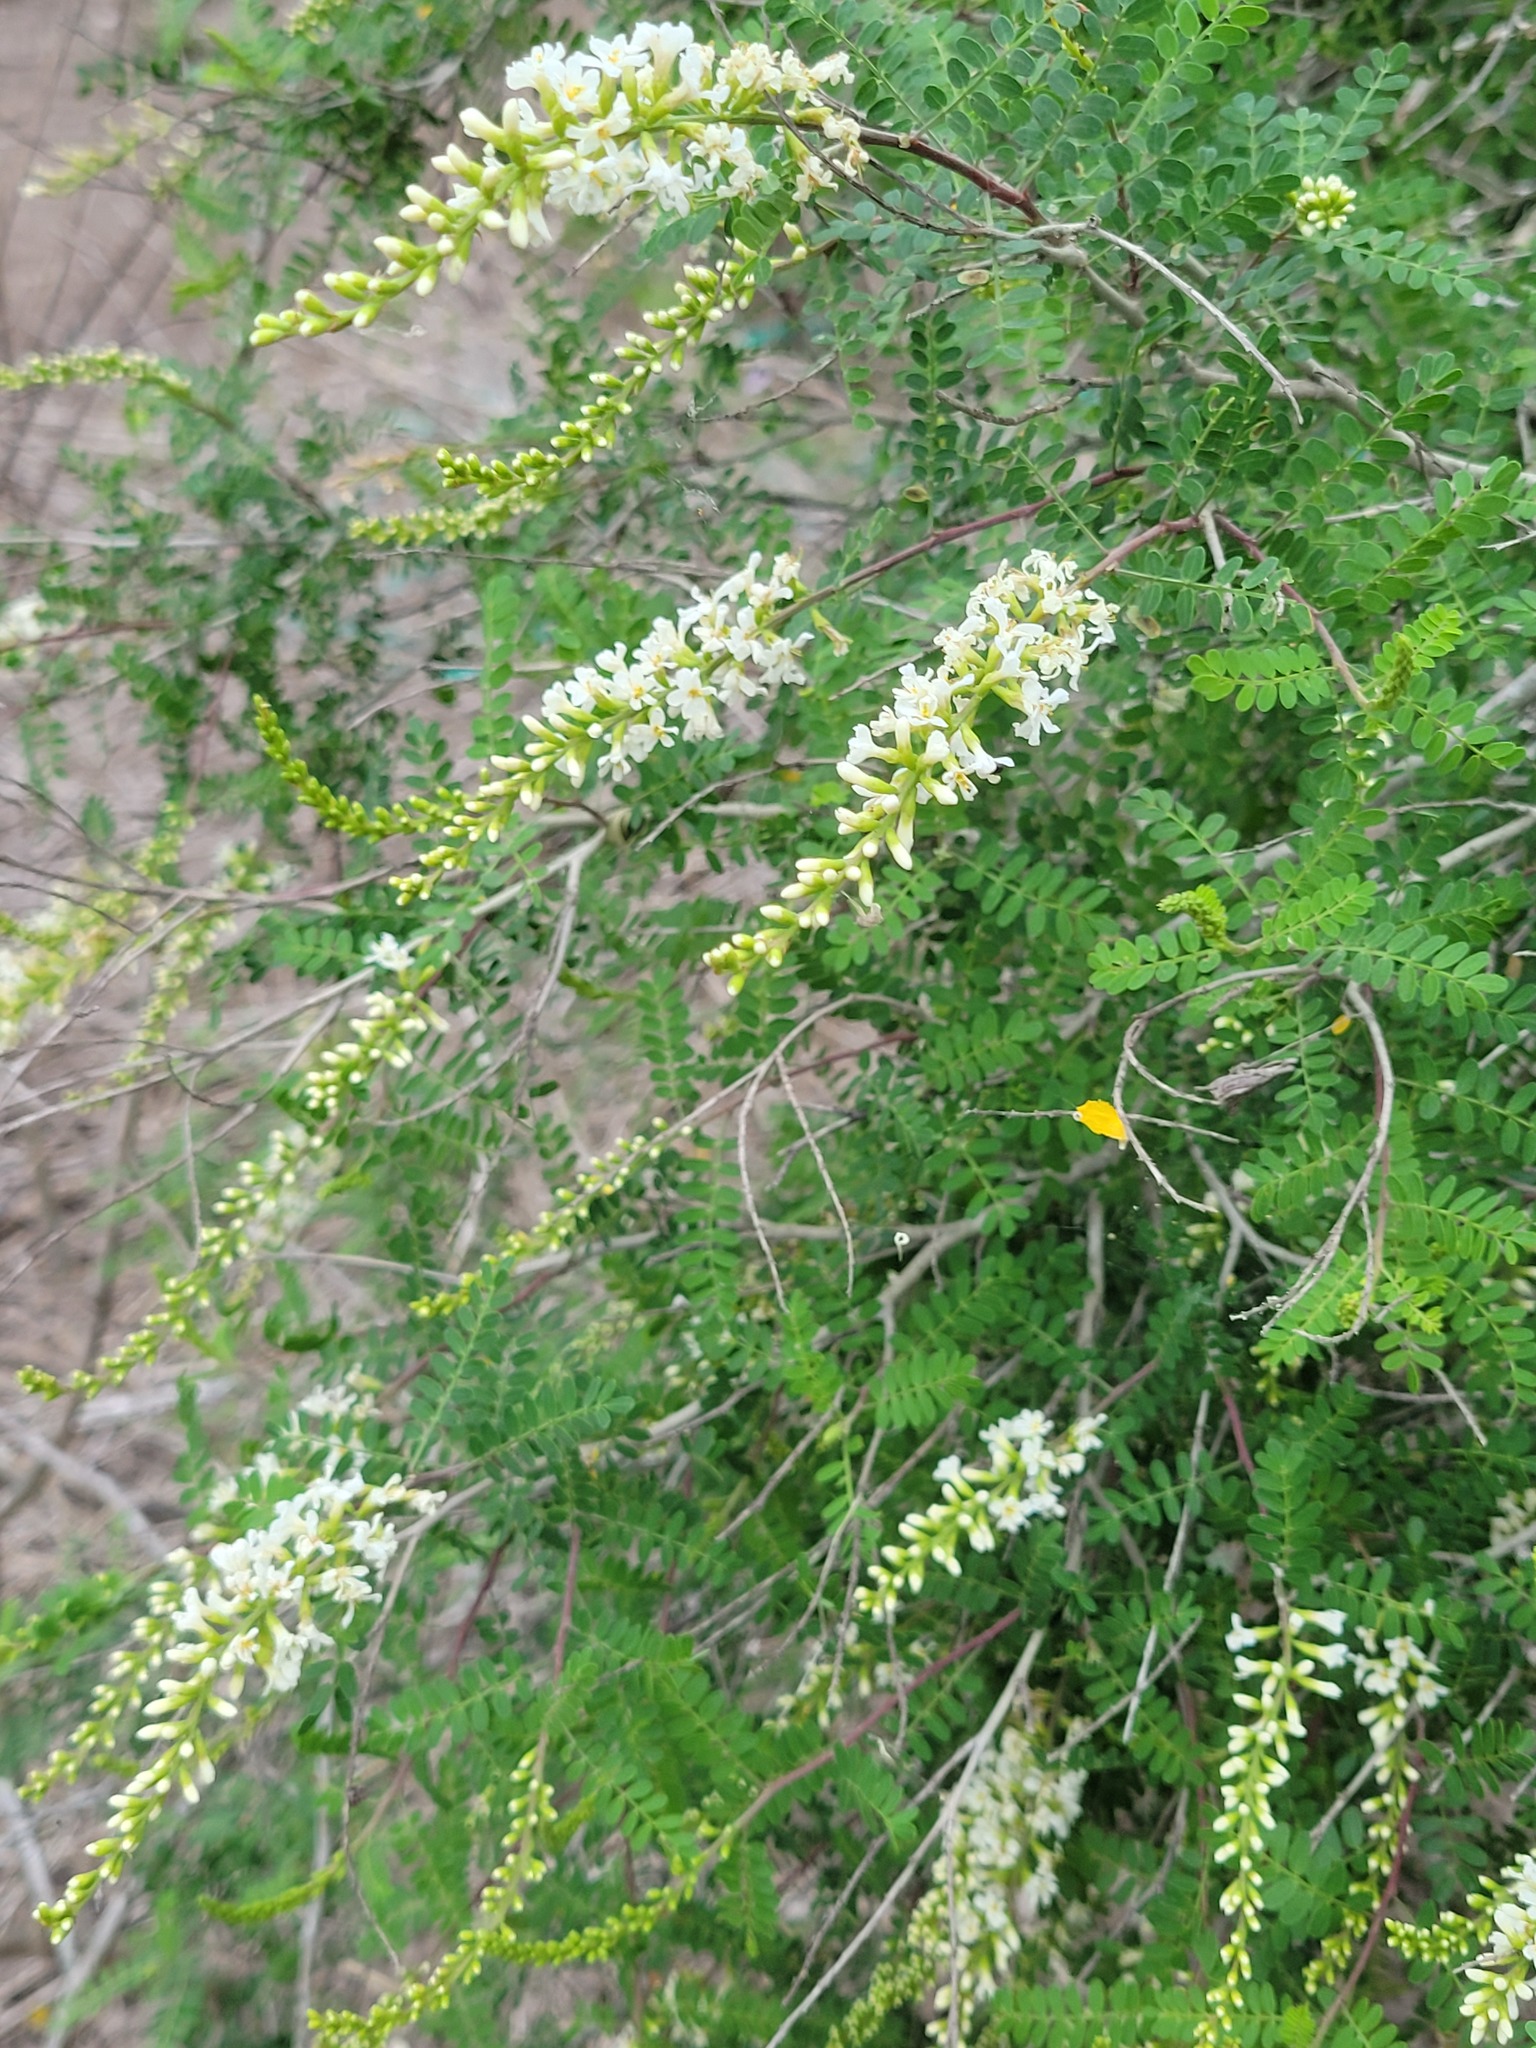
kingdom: Plantae
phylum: Tracheophyta
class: Magnoliopsida
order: Fabales
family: Fabaceae
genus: Eysenhardtia
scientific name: Eysenhardtia texana
